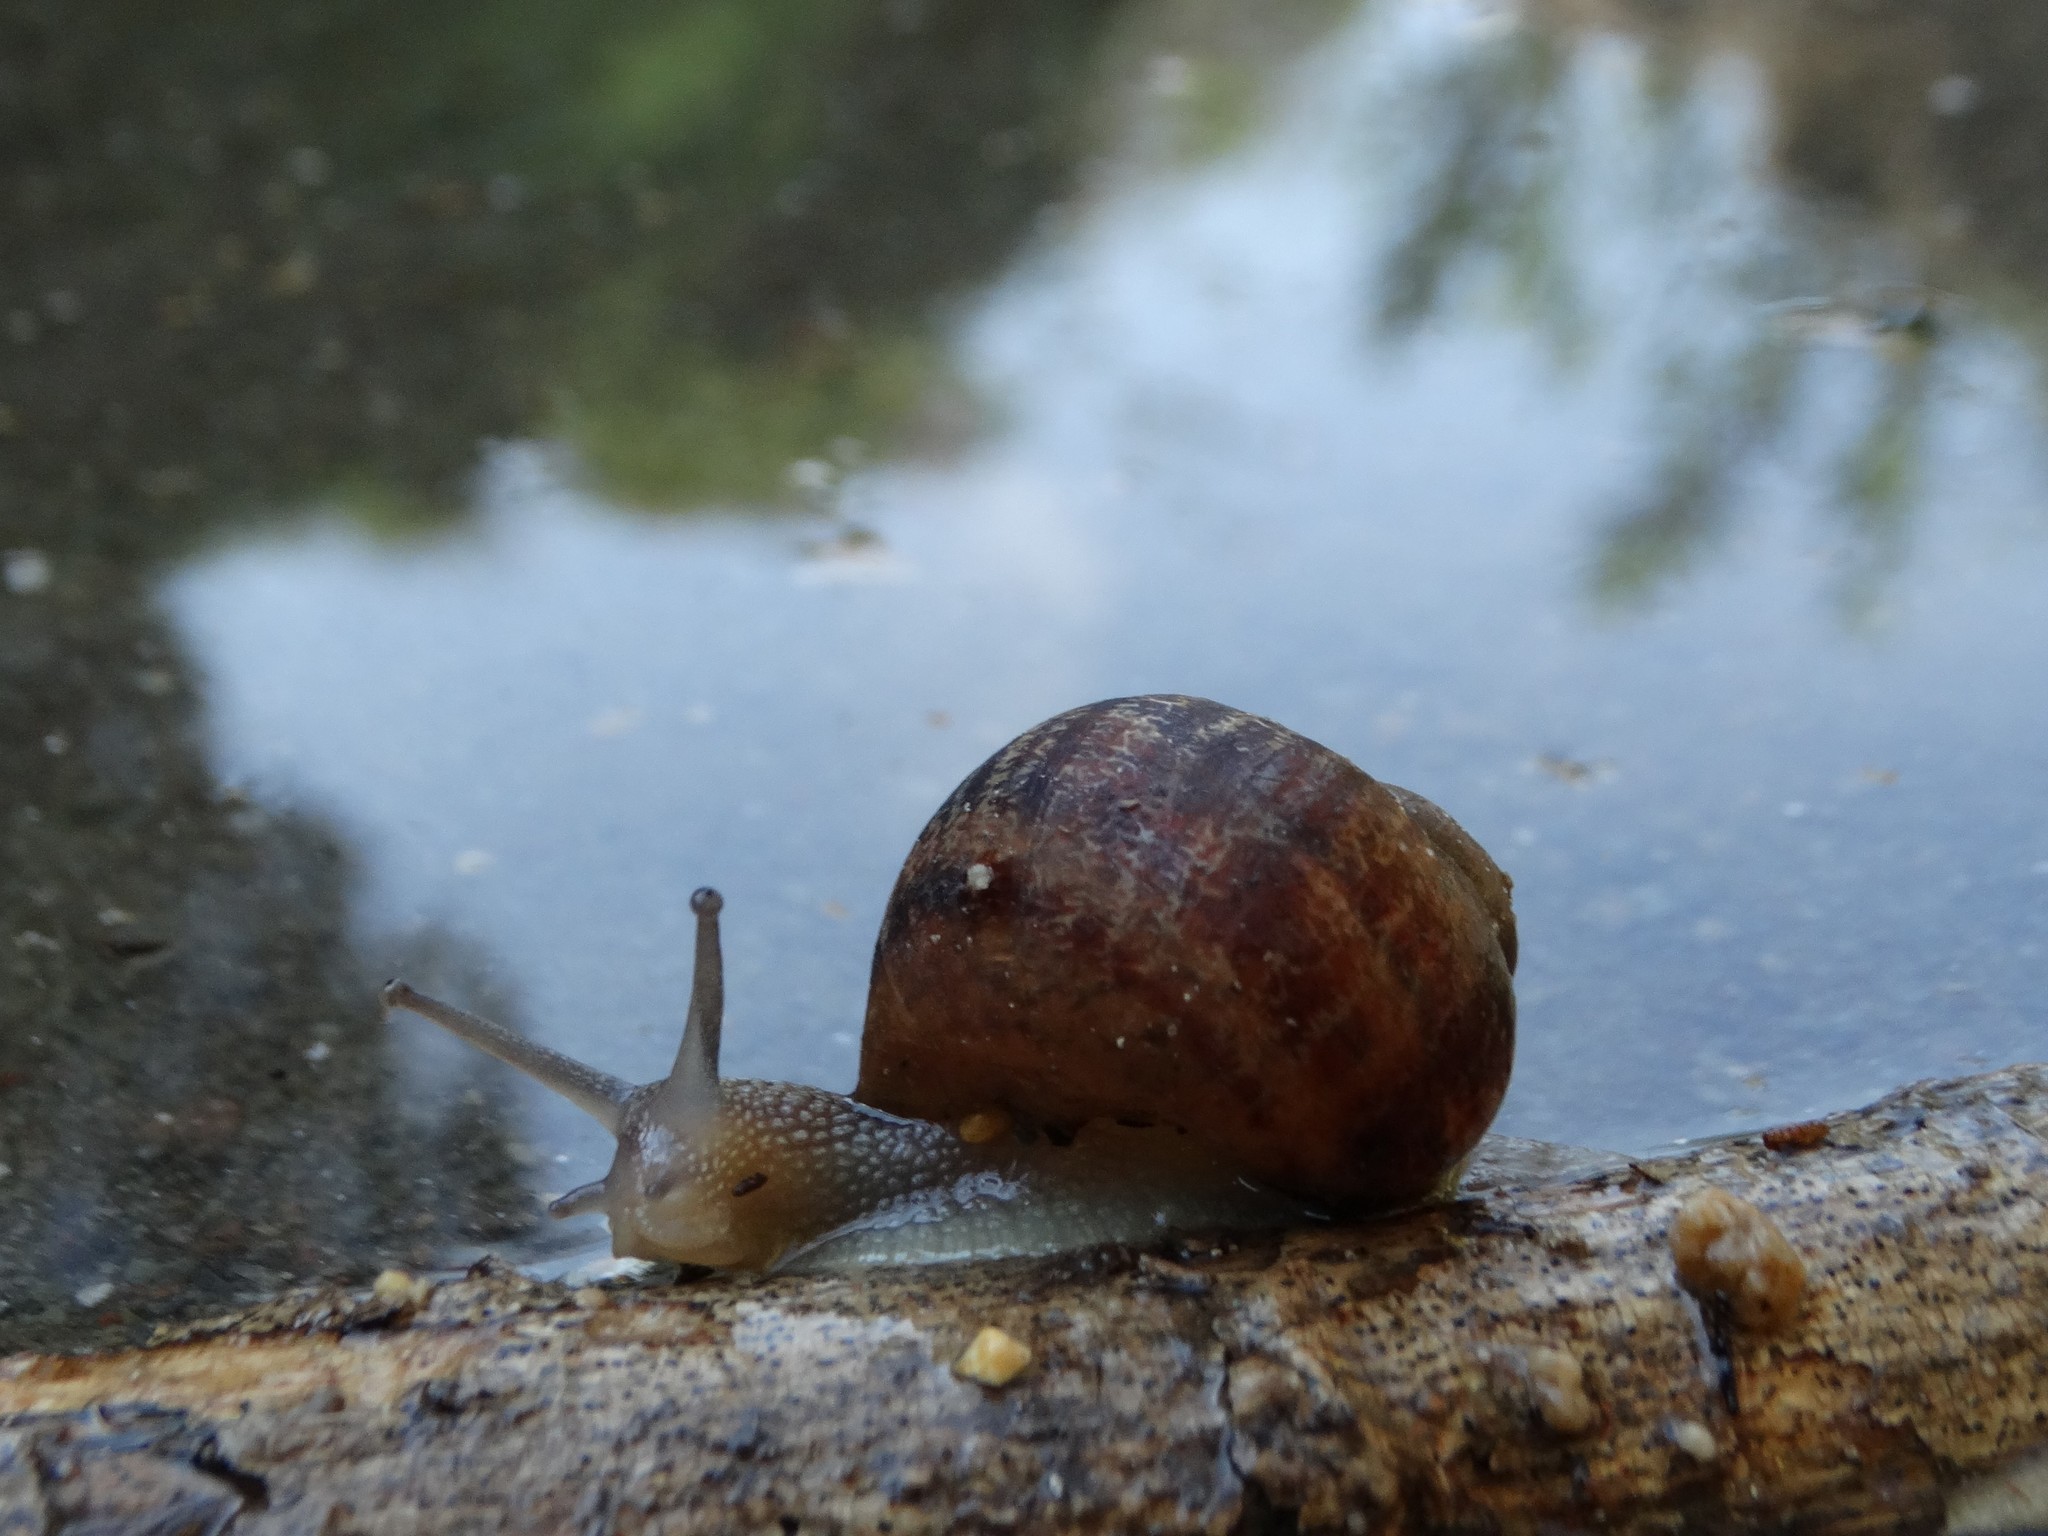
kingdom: Animalia
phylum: Mollusca
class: Gastropoda
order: Stylommatophora
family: Helicidae
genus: Cornu
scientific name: Cornu aspersum
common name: Brown garden snail
